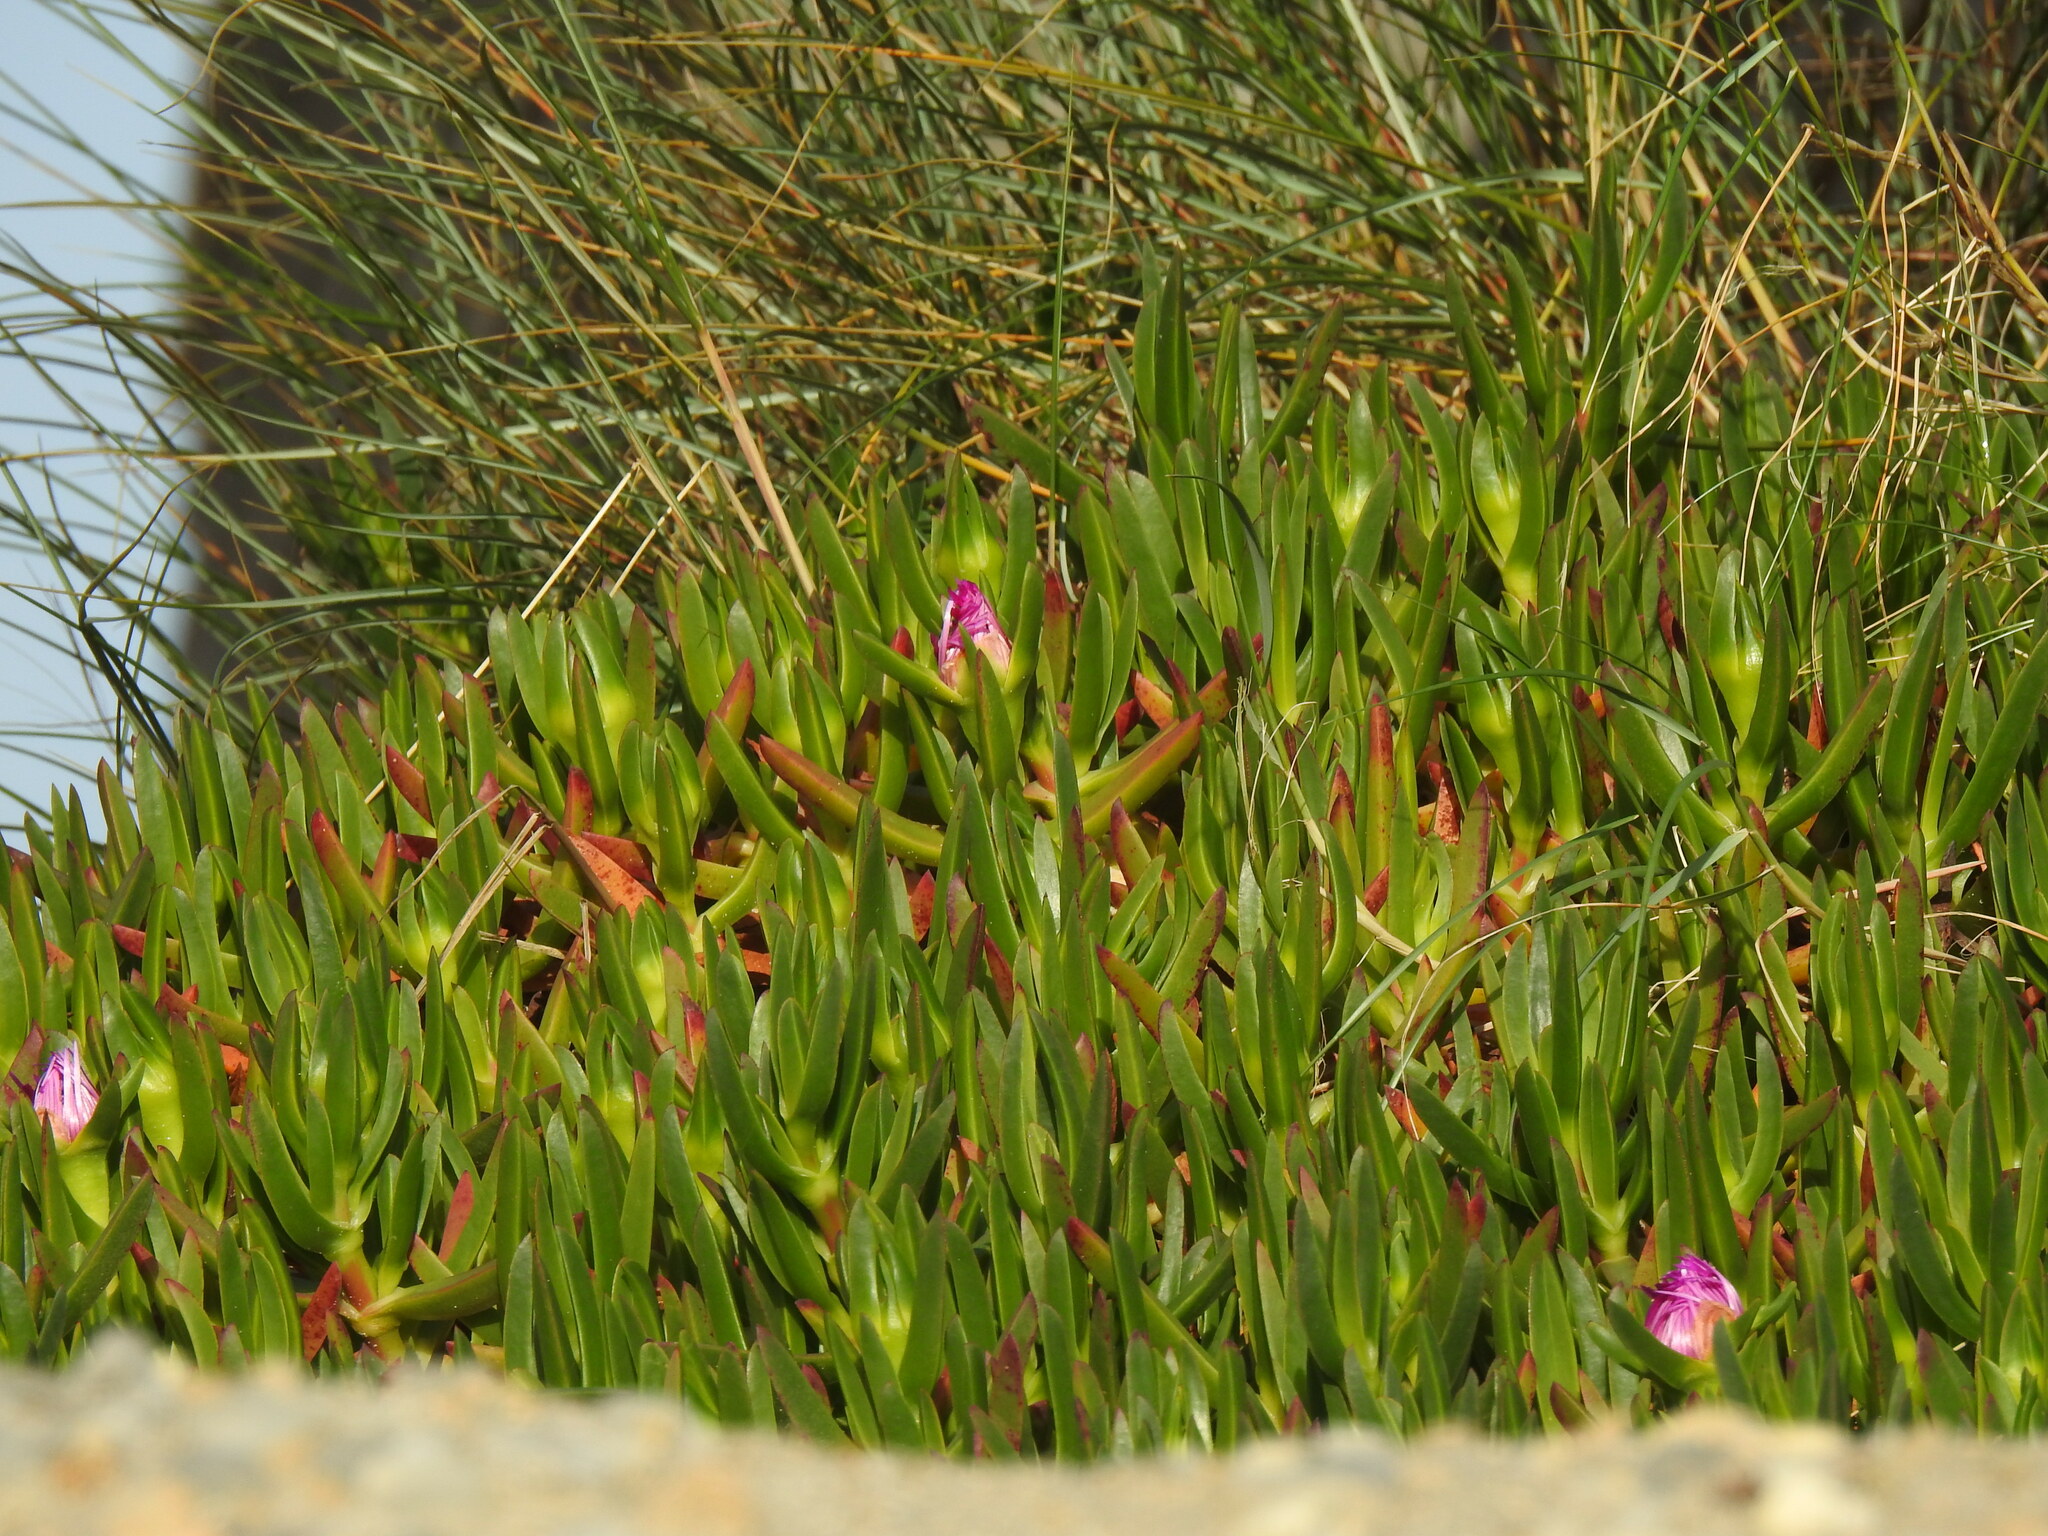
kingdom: Plantae
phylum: Tracheophyta
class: Magnoliopsida
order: Caryophyllales
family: Aizoaceae
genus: Carpobrotus
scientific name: Carpobrotus acinaciformis
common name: Sally-my-handsome
